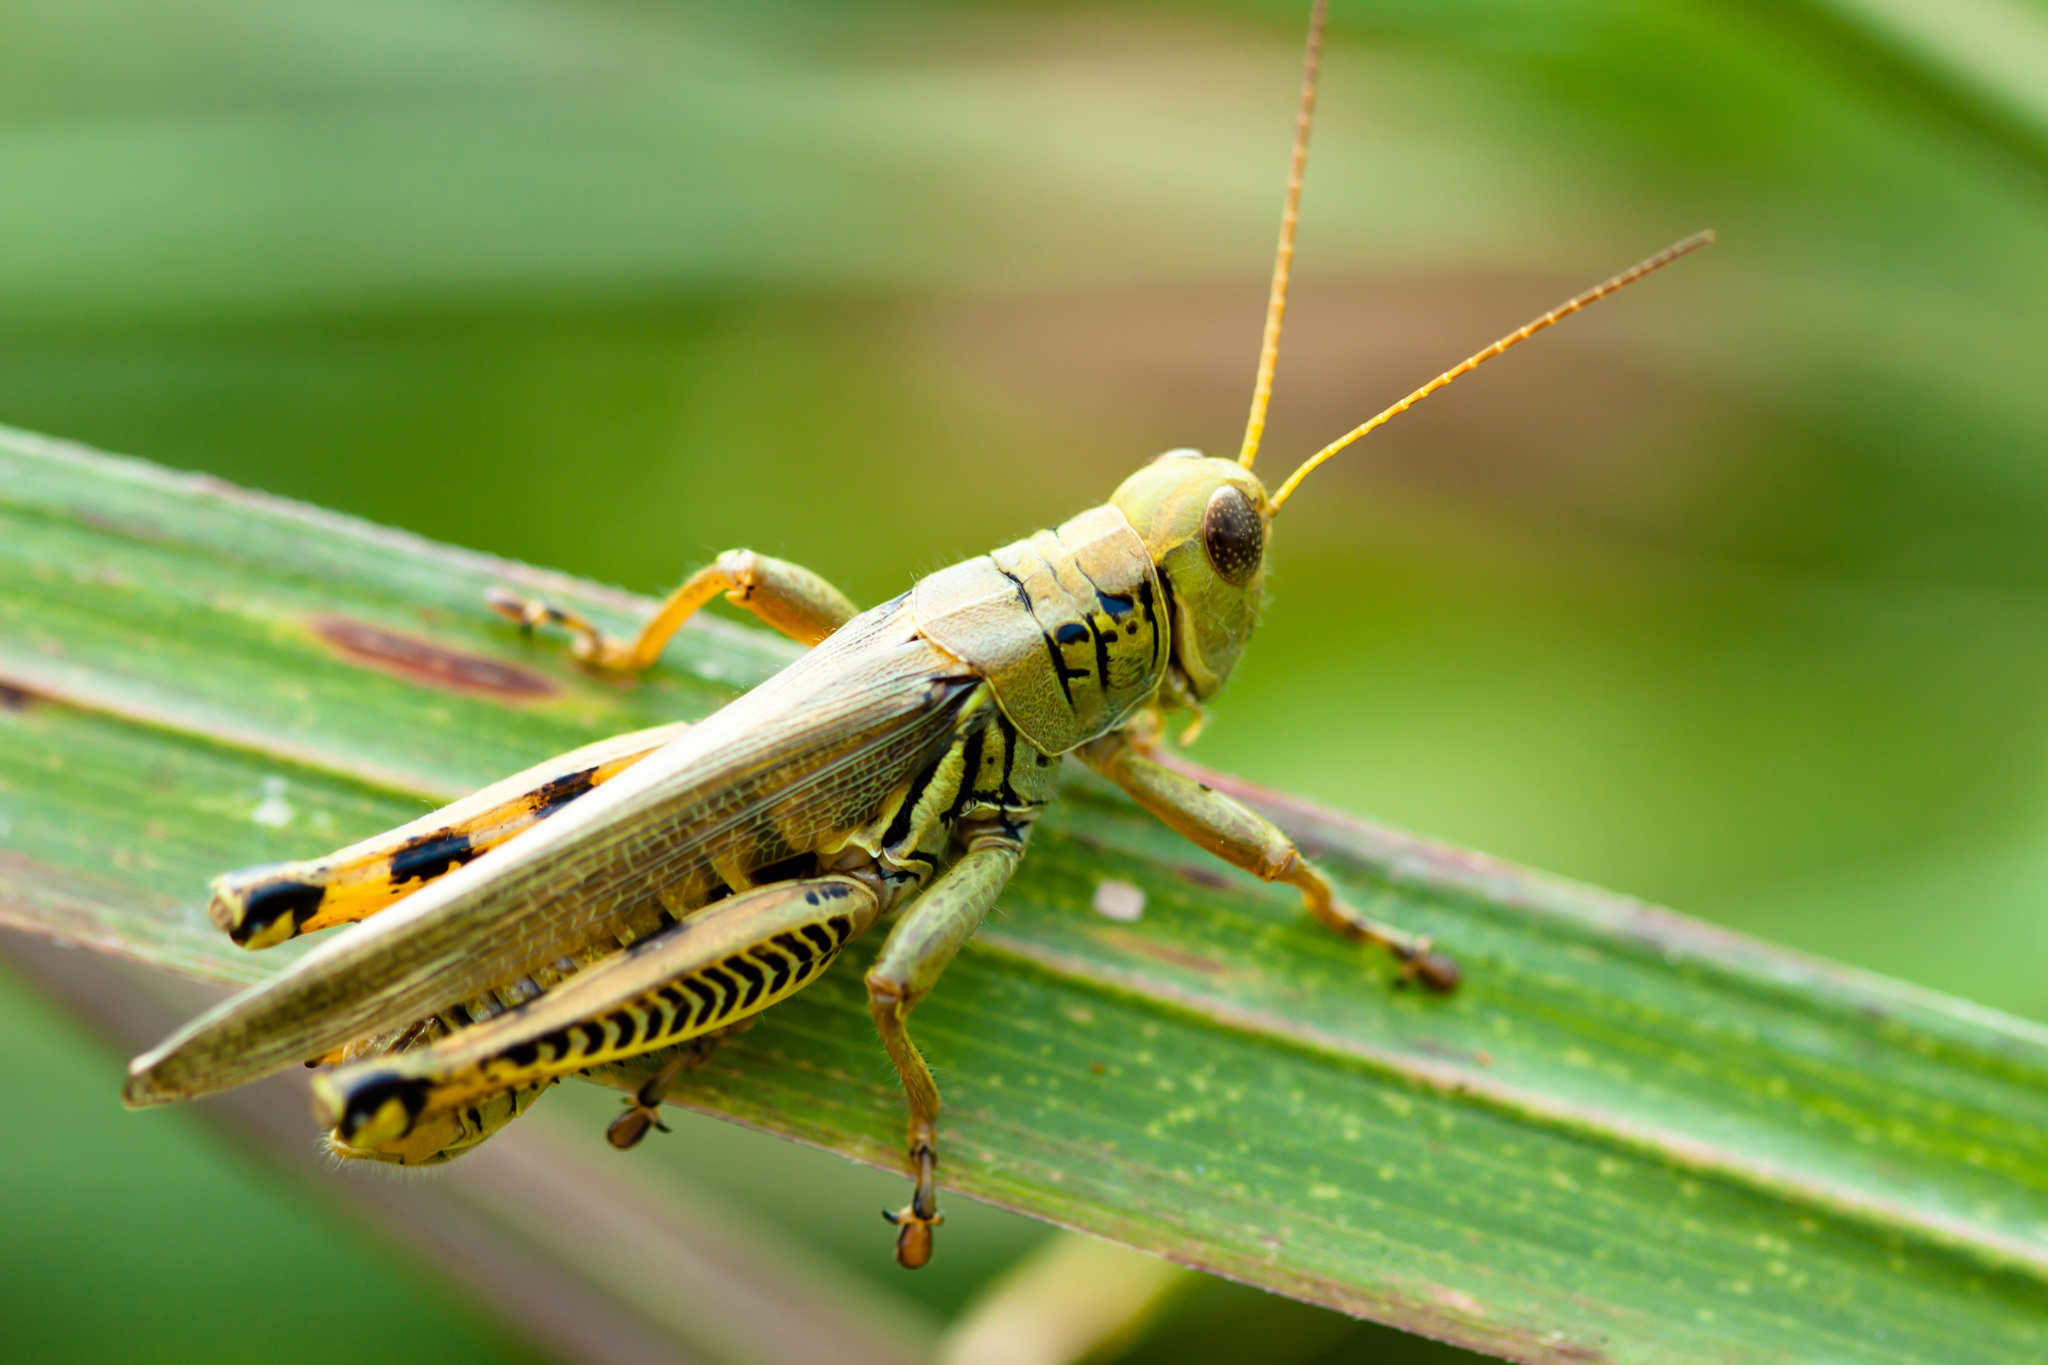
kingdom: Animalia
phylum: Arthropoda
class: Insecta
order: Orthoptera
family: Acrididae
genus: Melanoplus
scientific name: Melanoplus differentialis
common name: Differential grasshopper
